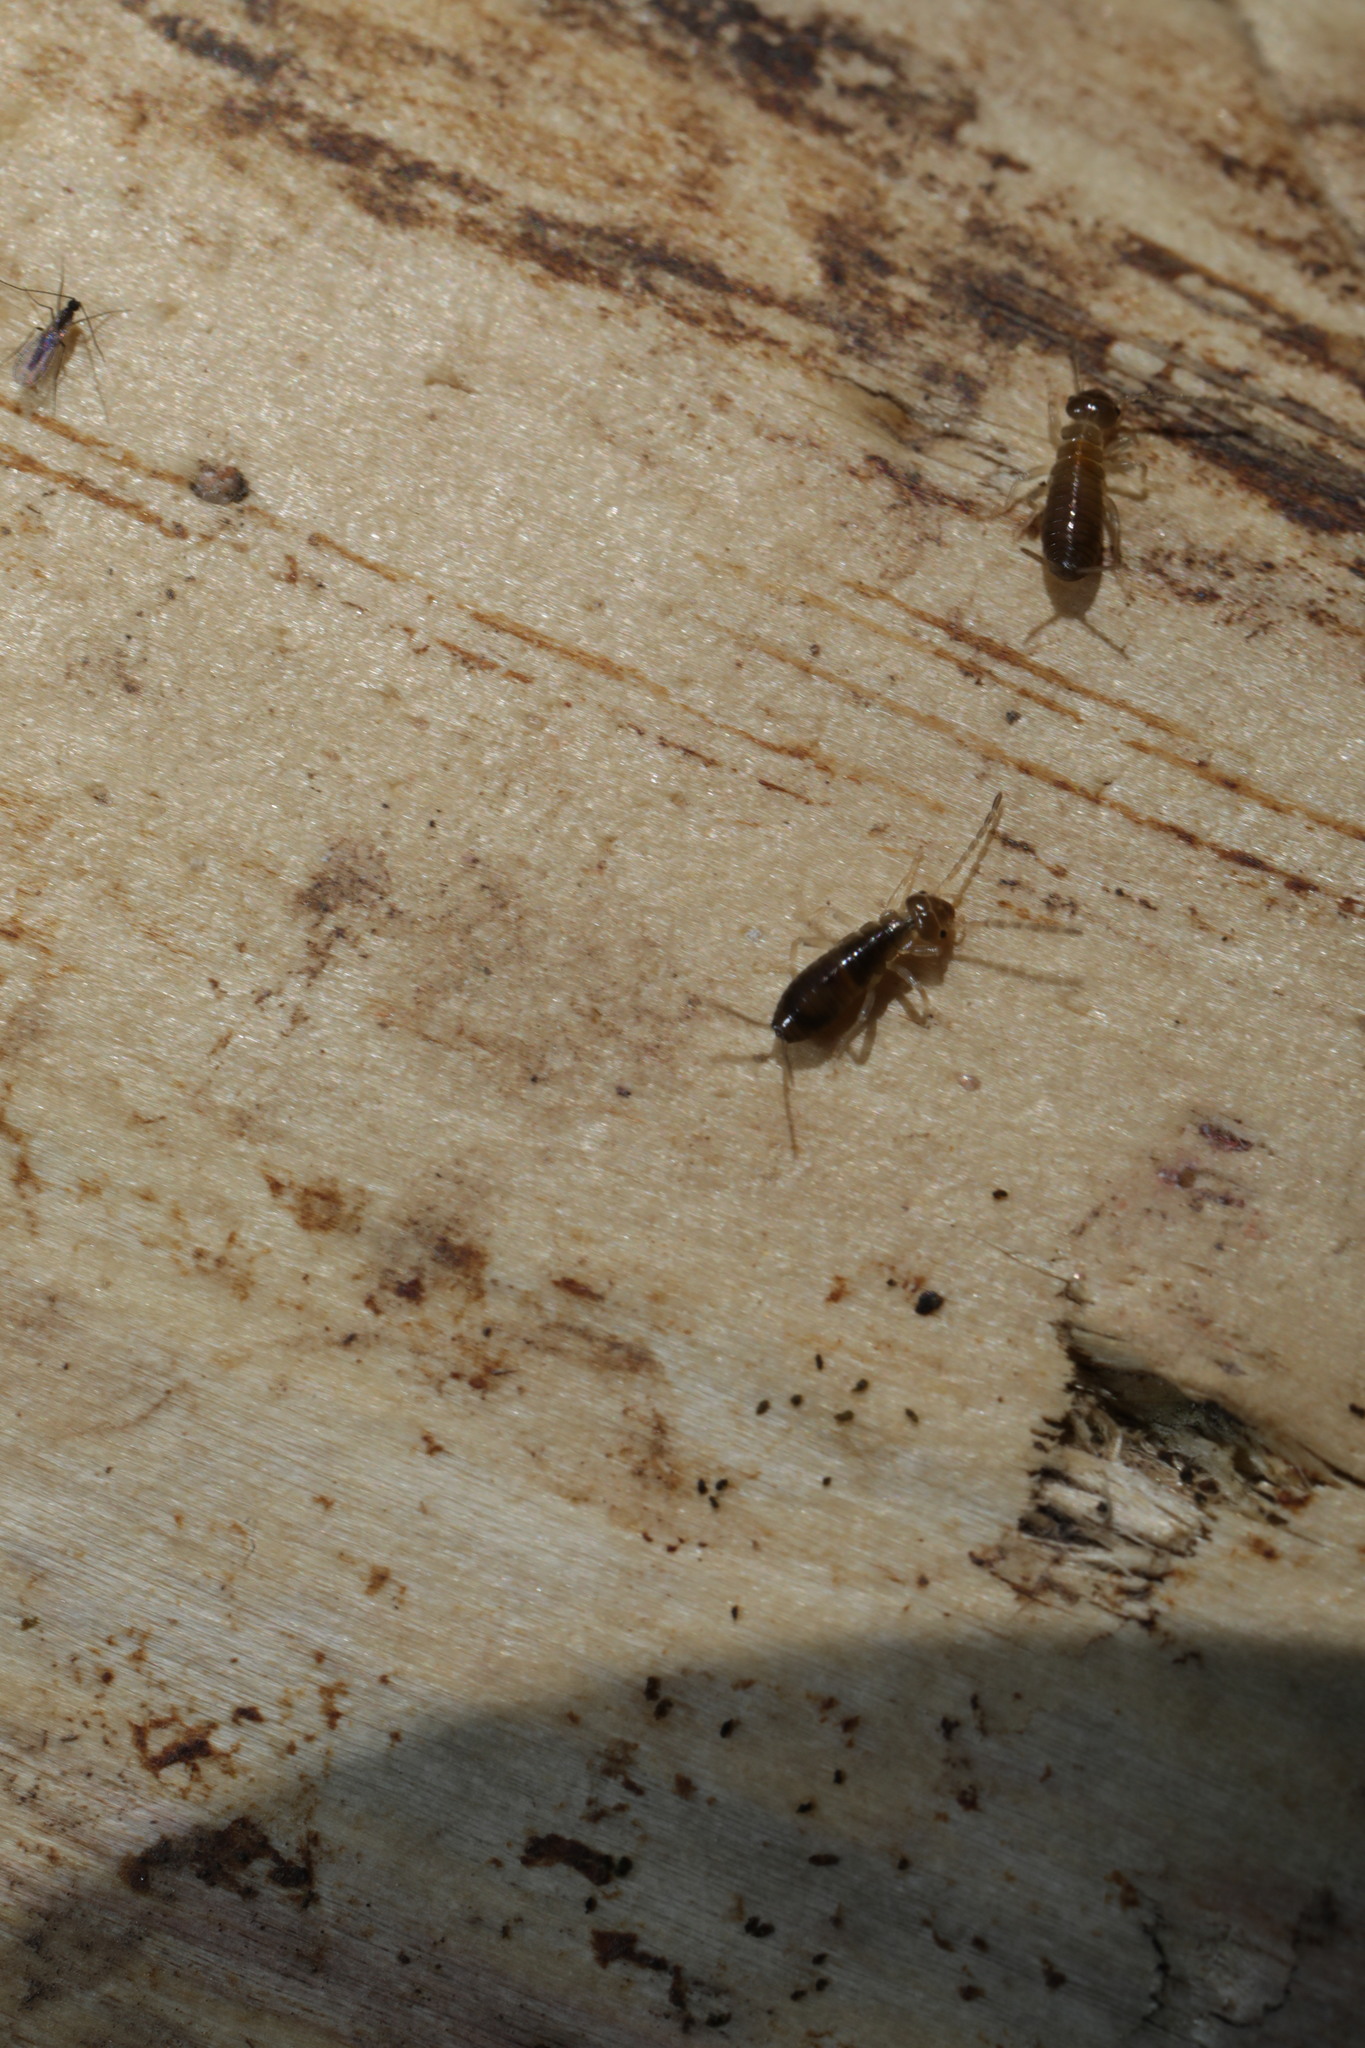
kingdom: Animalia
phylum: Arthropoda
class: Insecta
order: Dermaptera
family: Forficulidae
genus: Forficula
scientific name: Forficula
